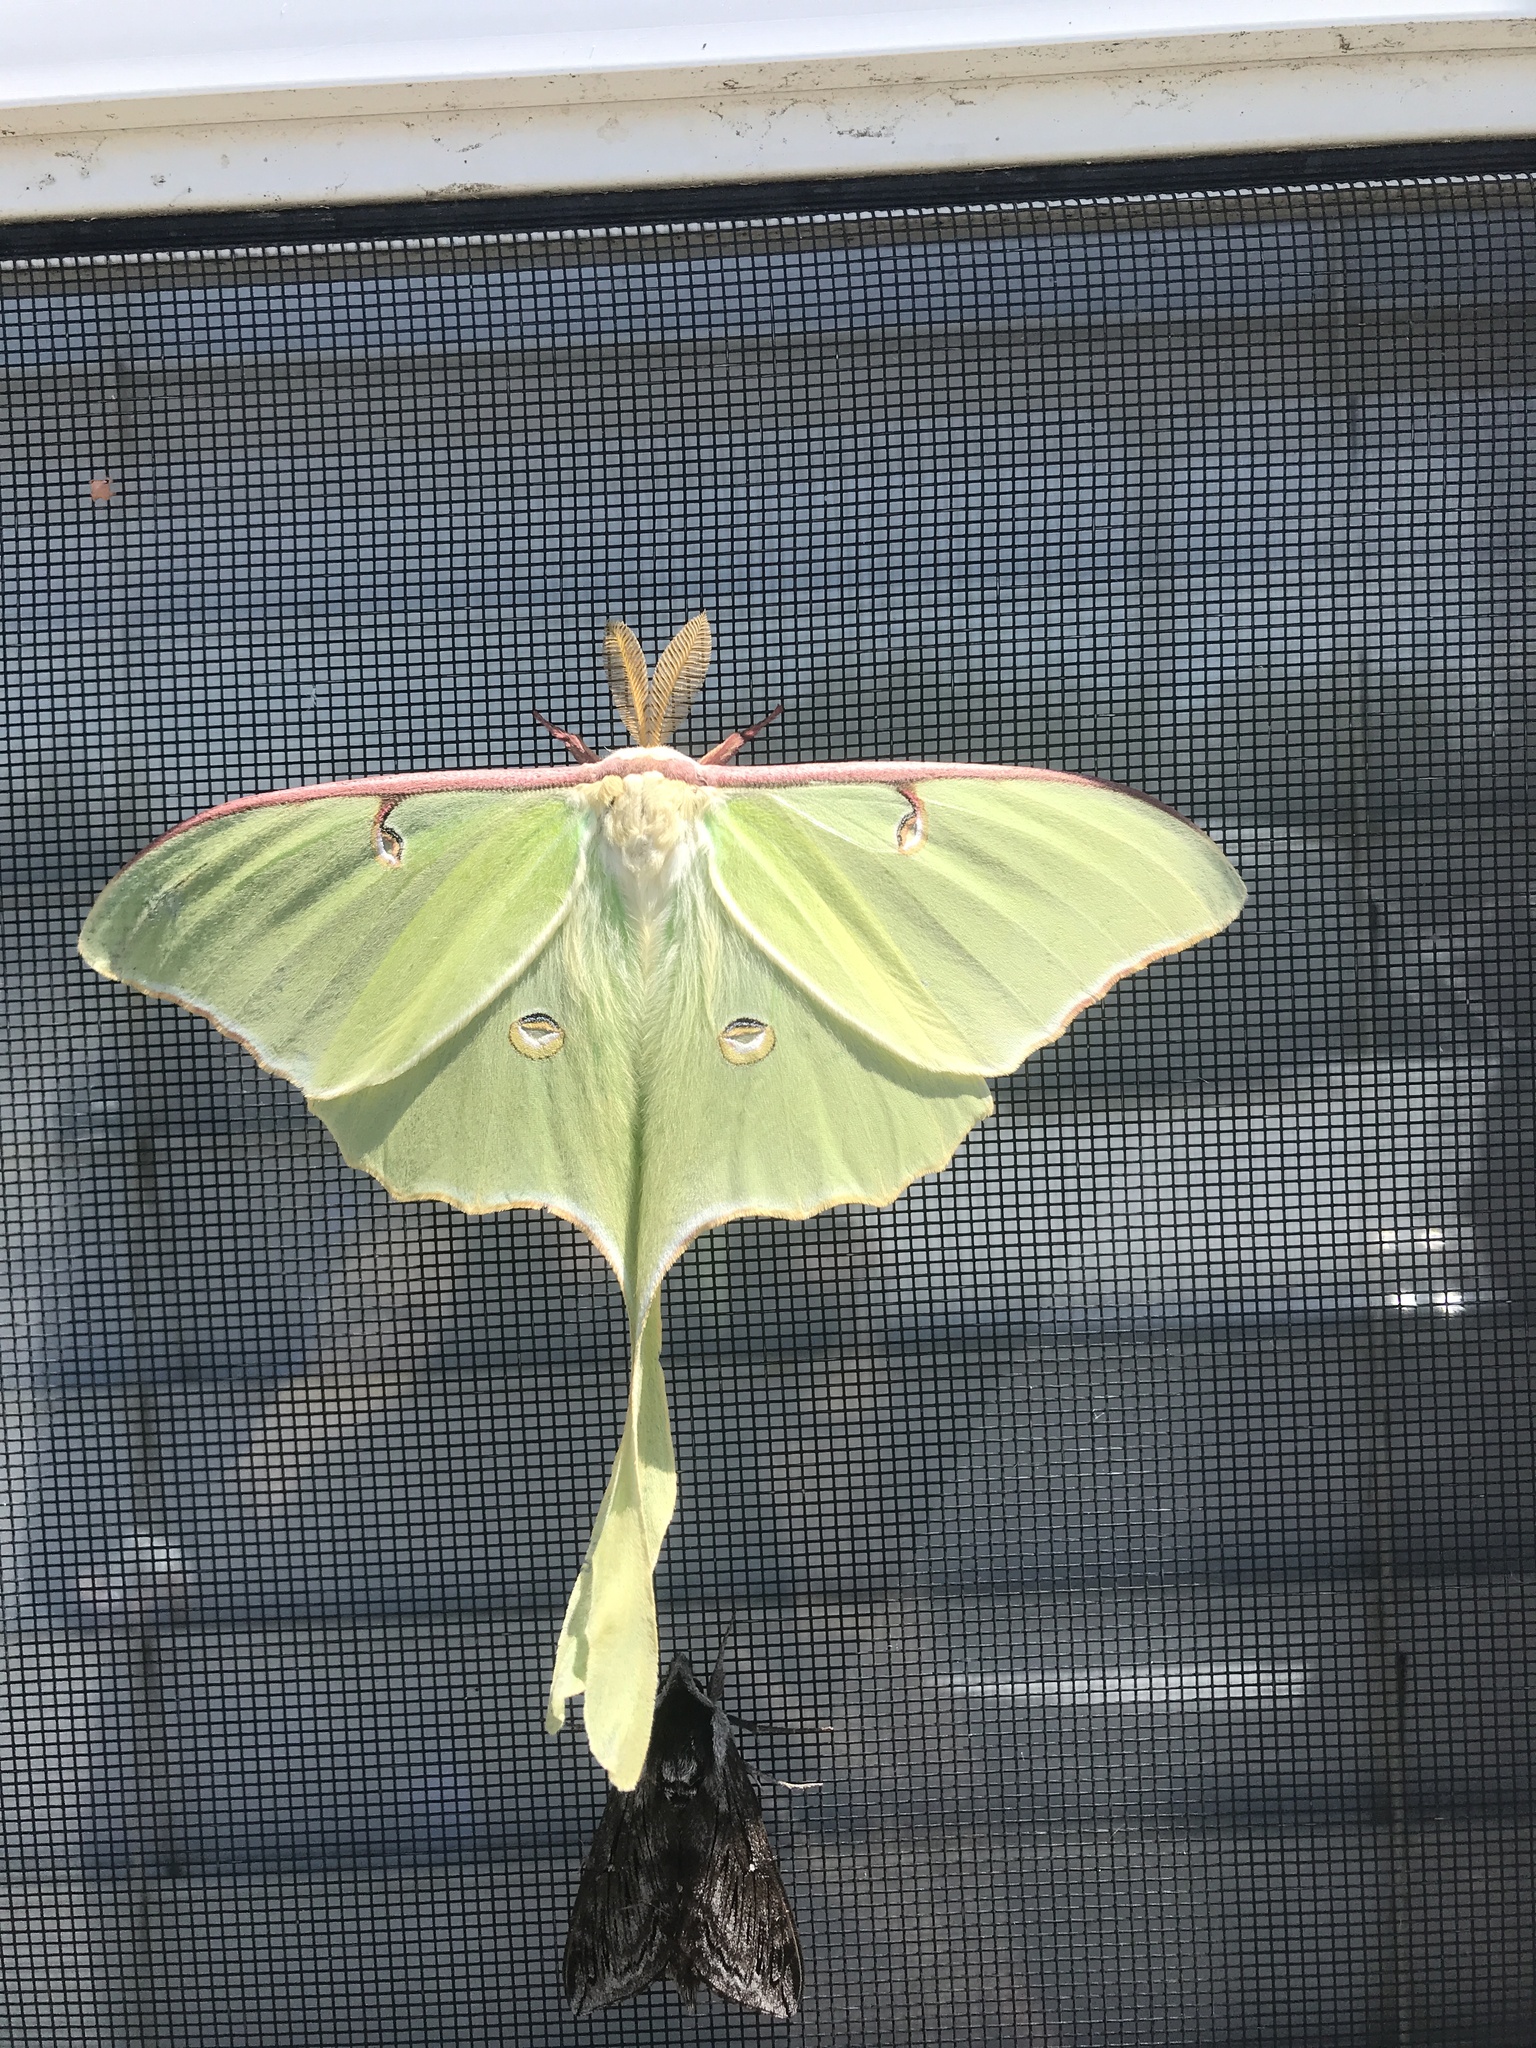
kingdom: Animalia
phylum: Arthropoda
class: Insecta
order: Lepidoptera
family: Saturniidae
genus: Actias
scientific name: Actias luna
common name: Luna moth
